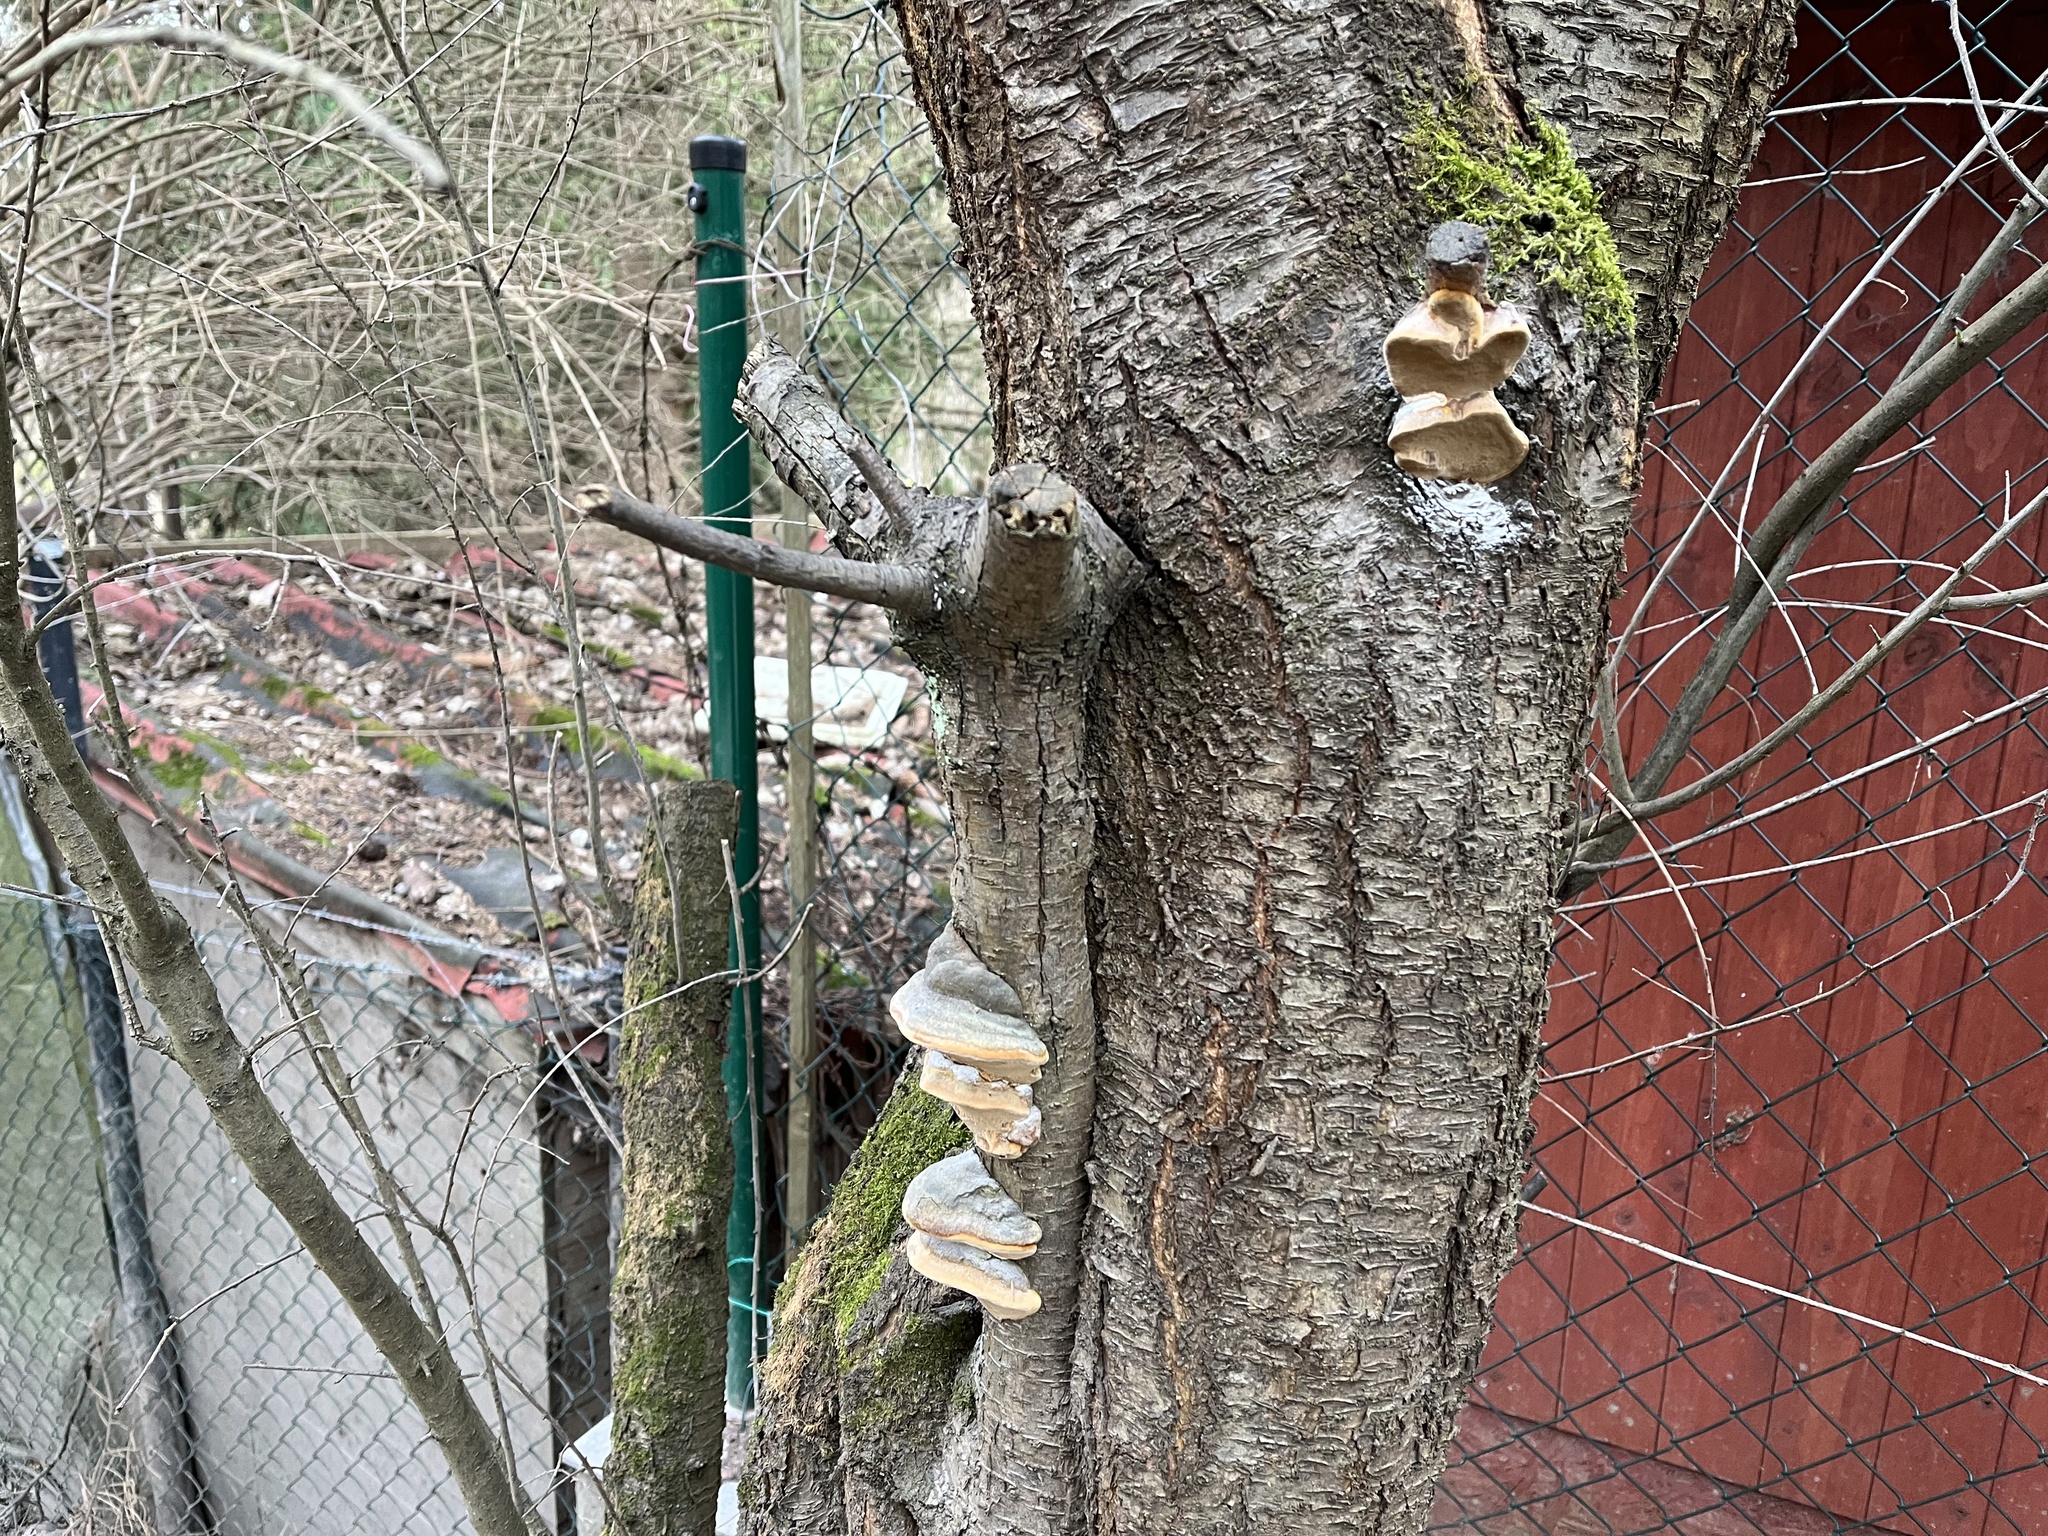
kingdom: Fungi
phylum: Basidiomycota
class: Agaricomycetes
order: Hymenochaetales
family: Hymenochaetaceae
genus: Phellinus
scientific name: Phellinus pomaceus
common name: Cushion bracket
